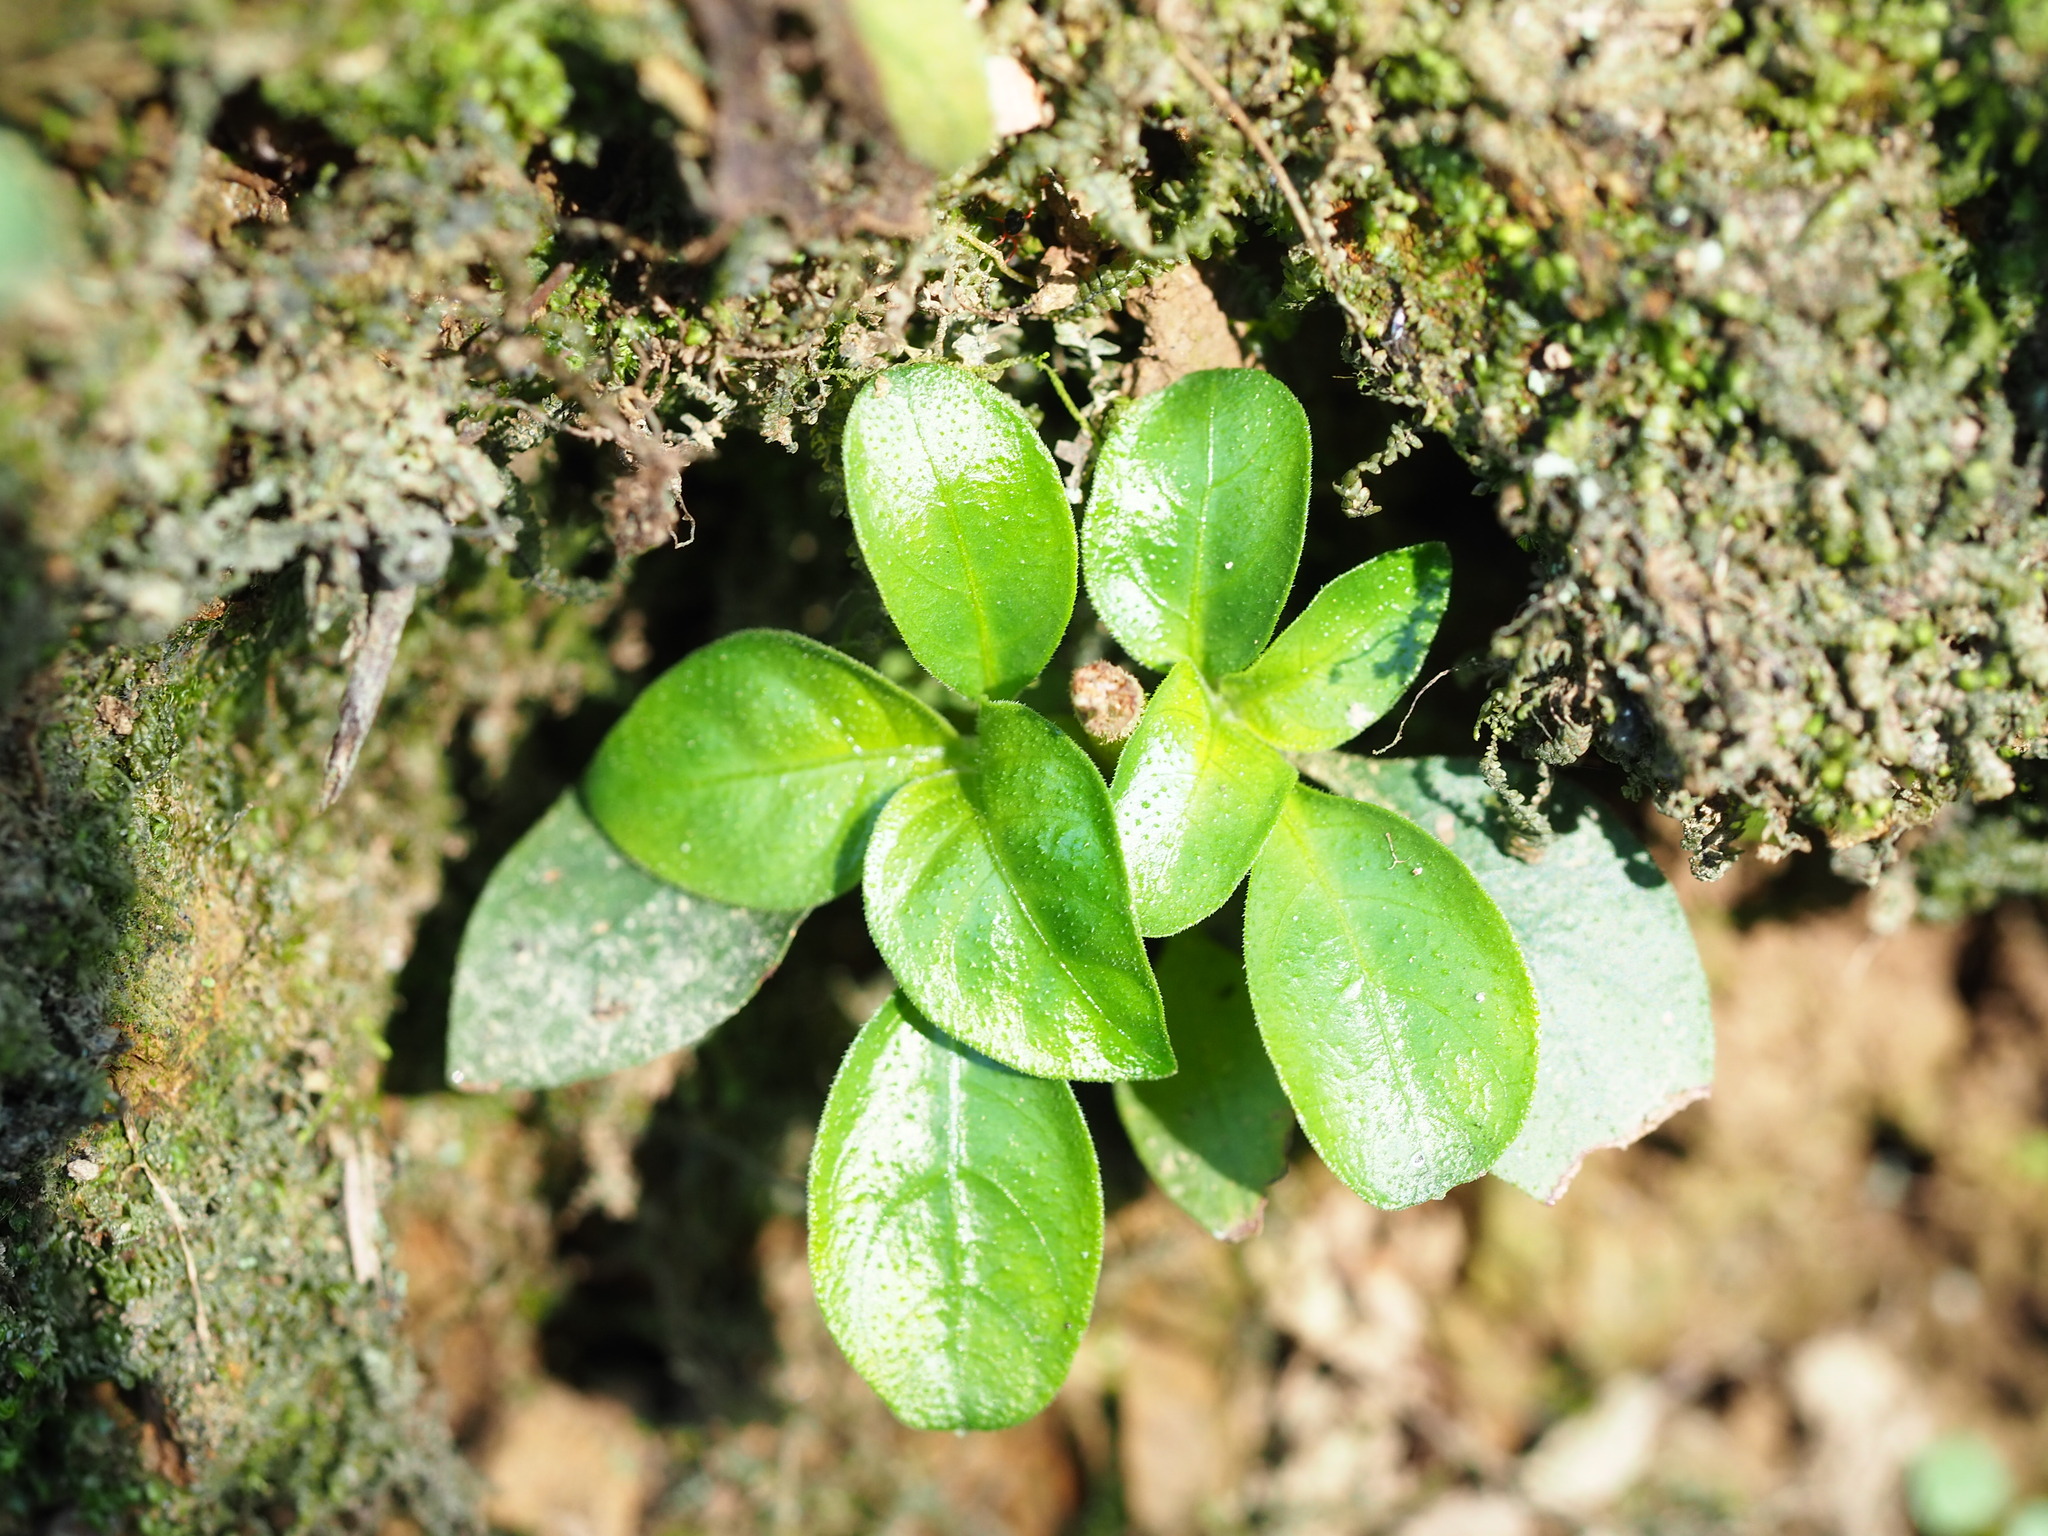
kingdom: Plantae
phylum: Tracheophyta
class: Magnoliopsida
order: Gentianales
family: Rubiaceae
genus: Ophiorrhiza
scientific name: Ophiorrhiza pumila
